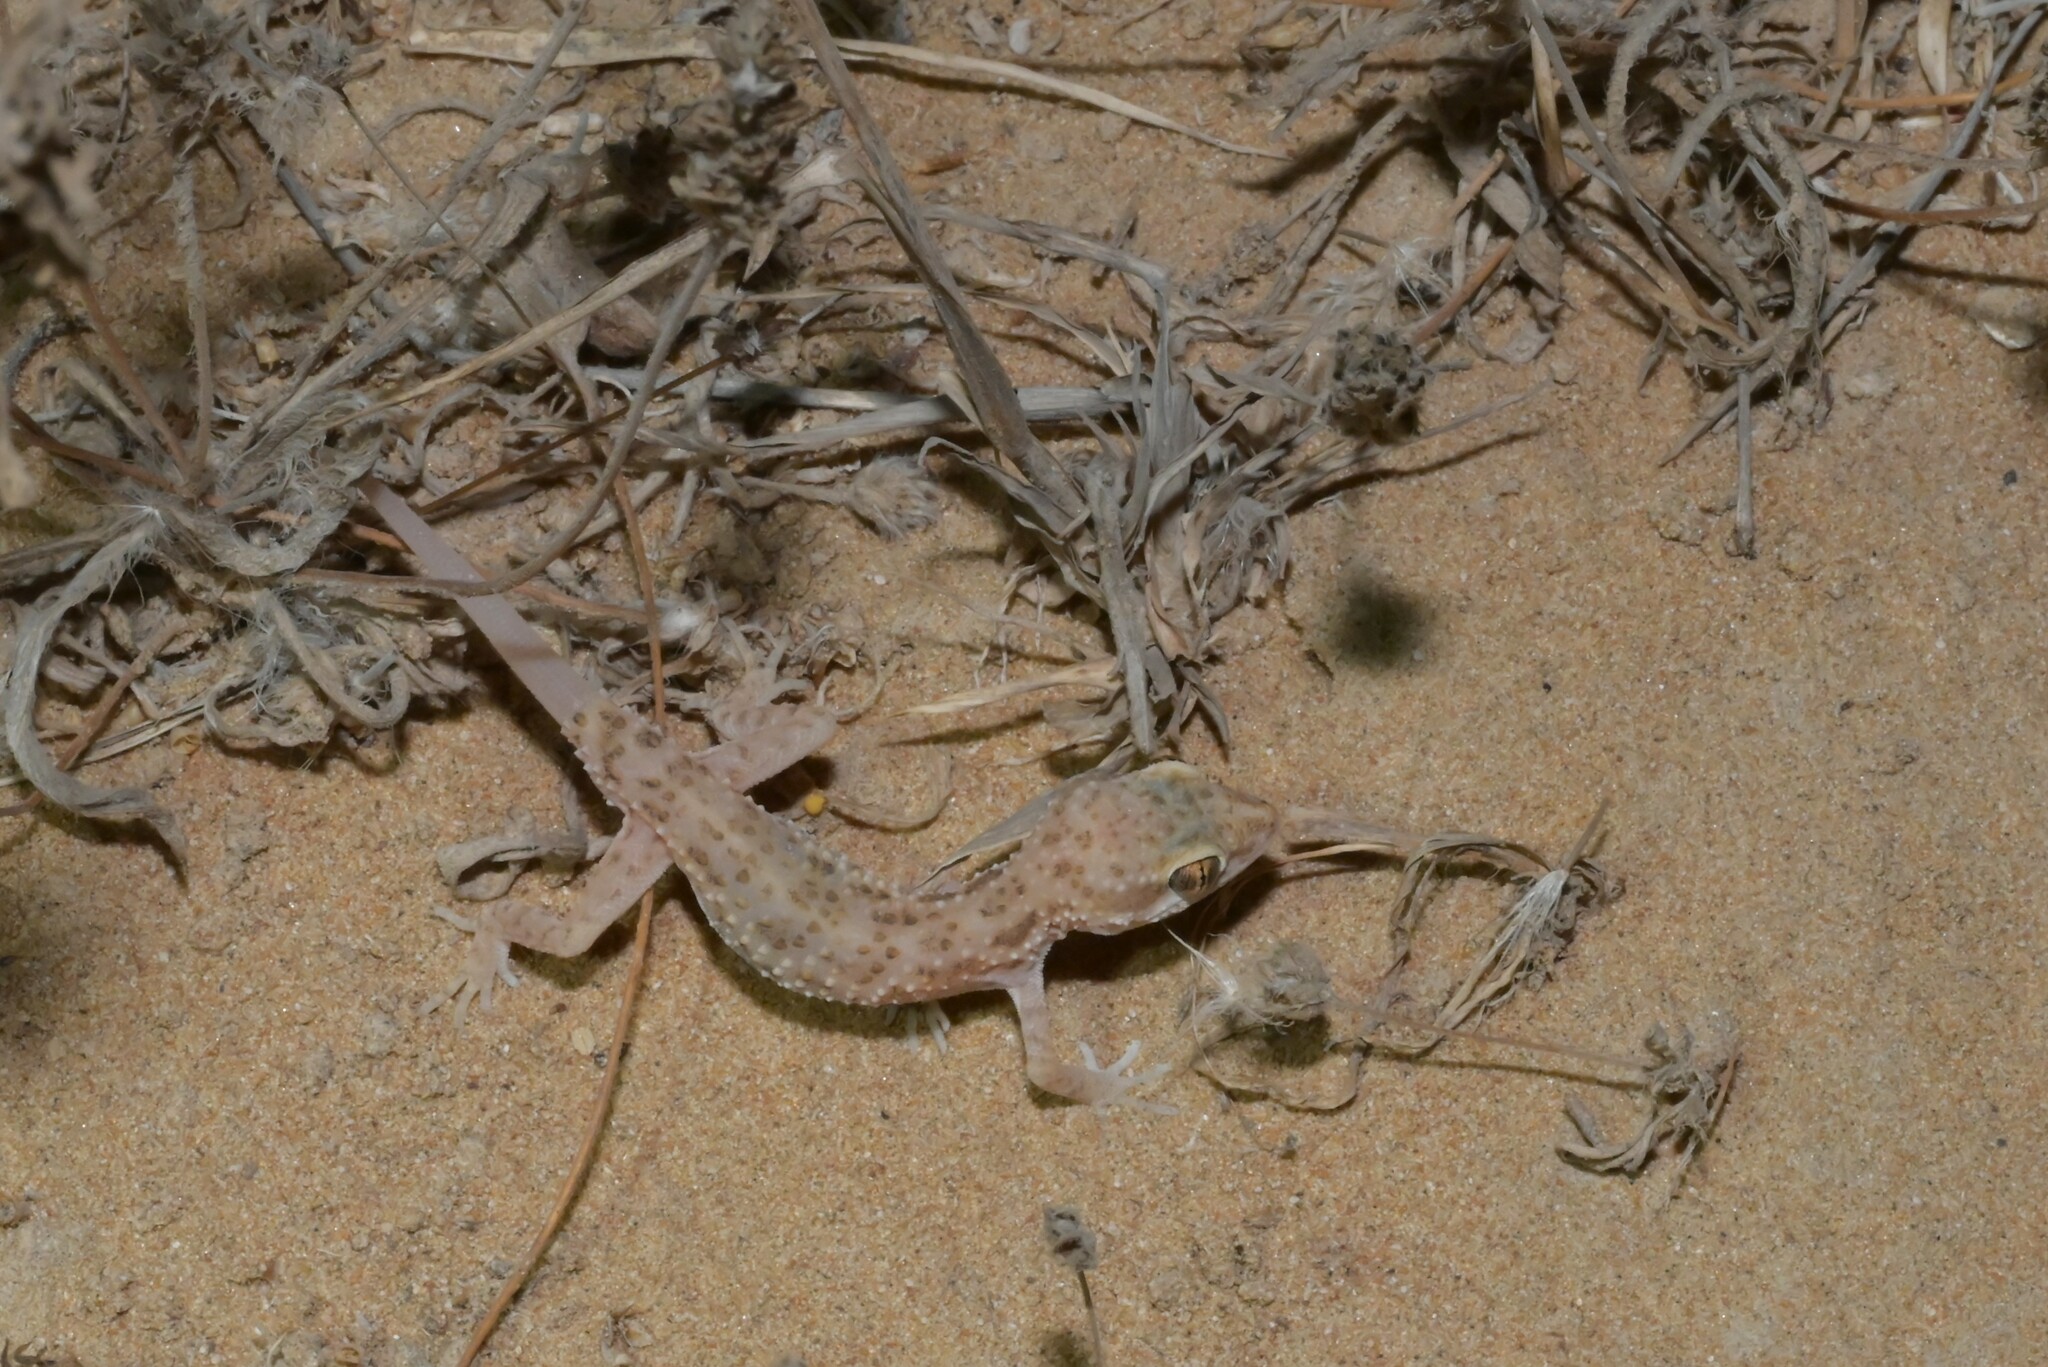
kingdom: Animalia
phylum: Chordata
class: Squamata
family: Gekkonidae
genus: Bunopus
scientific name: Bunopus tuberculatus
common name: Southern tuberculated gecko
